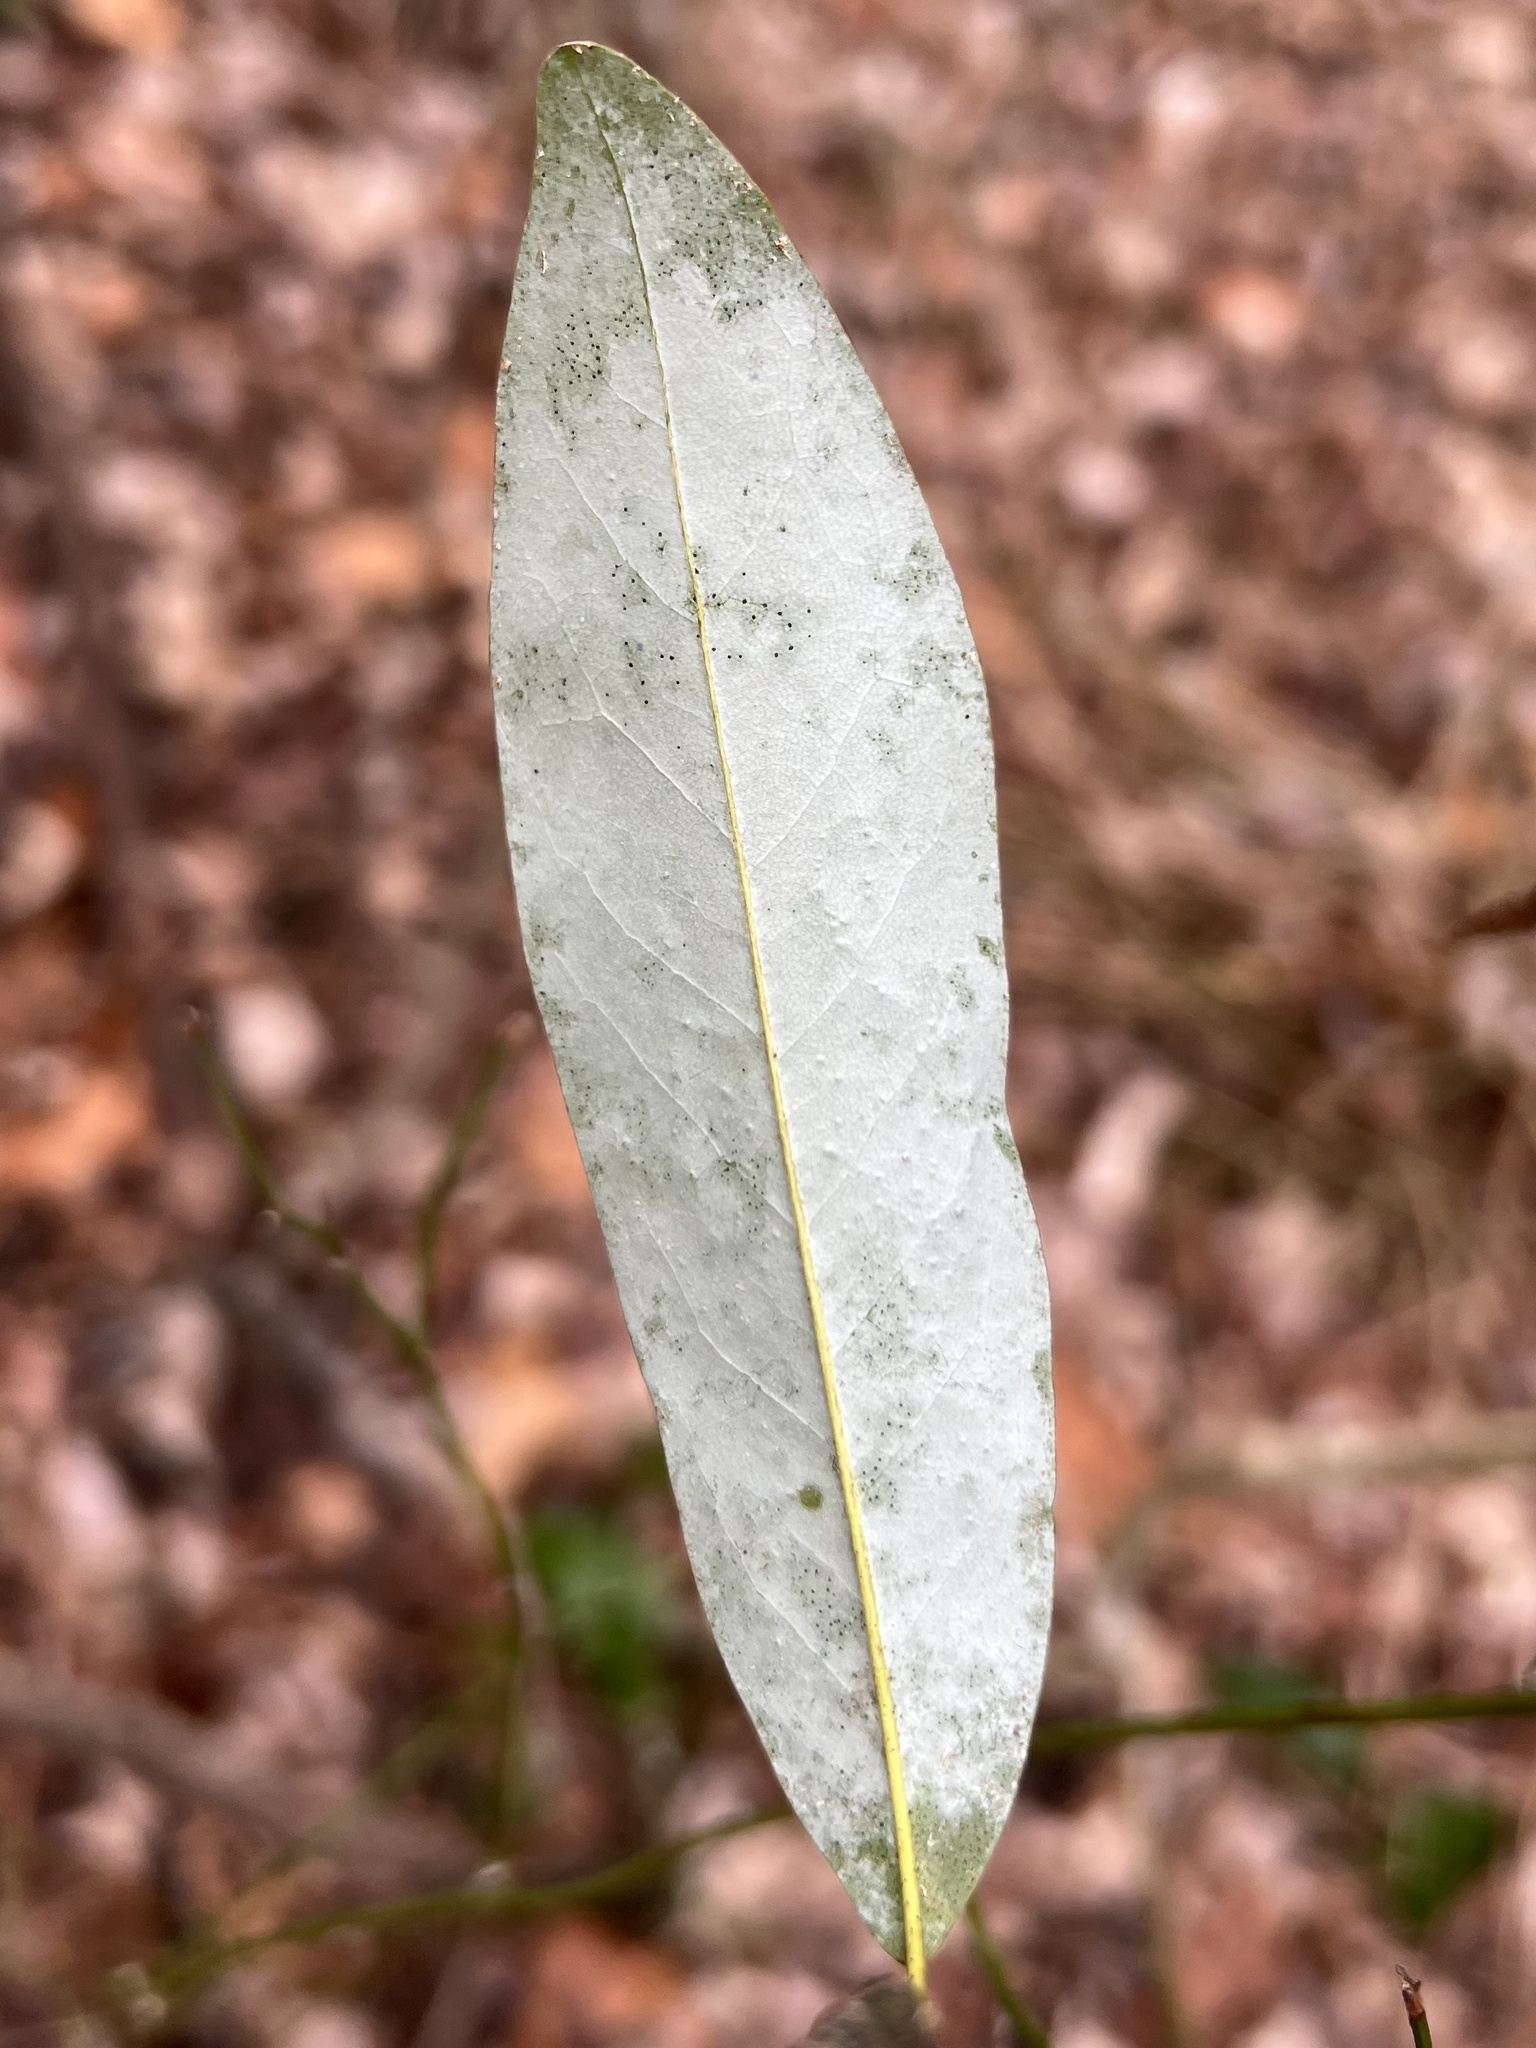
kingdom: Plantae
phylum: Tracheophyta
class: Magnoliopsida
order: Magnoliales
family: Magnoliaceae
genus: Magnolia
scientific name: Magnolia virginiana
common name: Swamp bay
